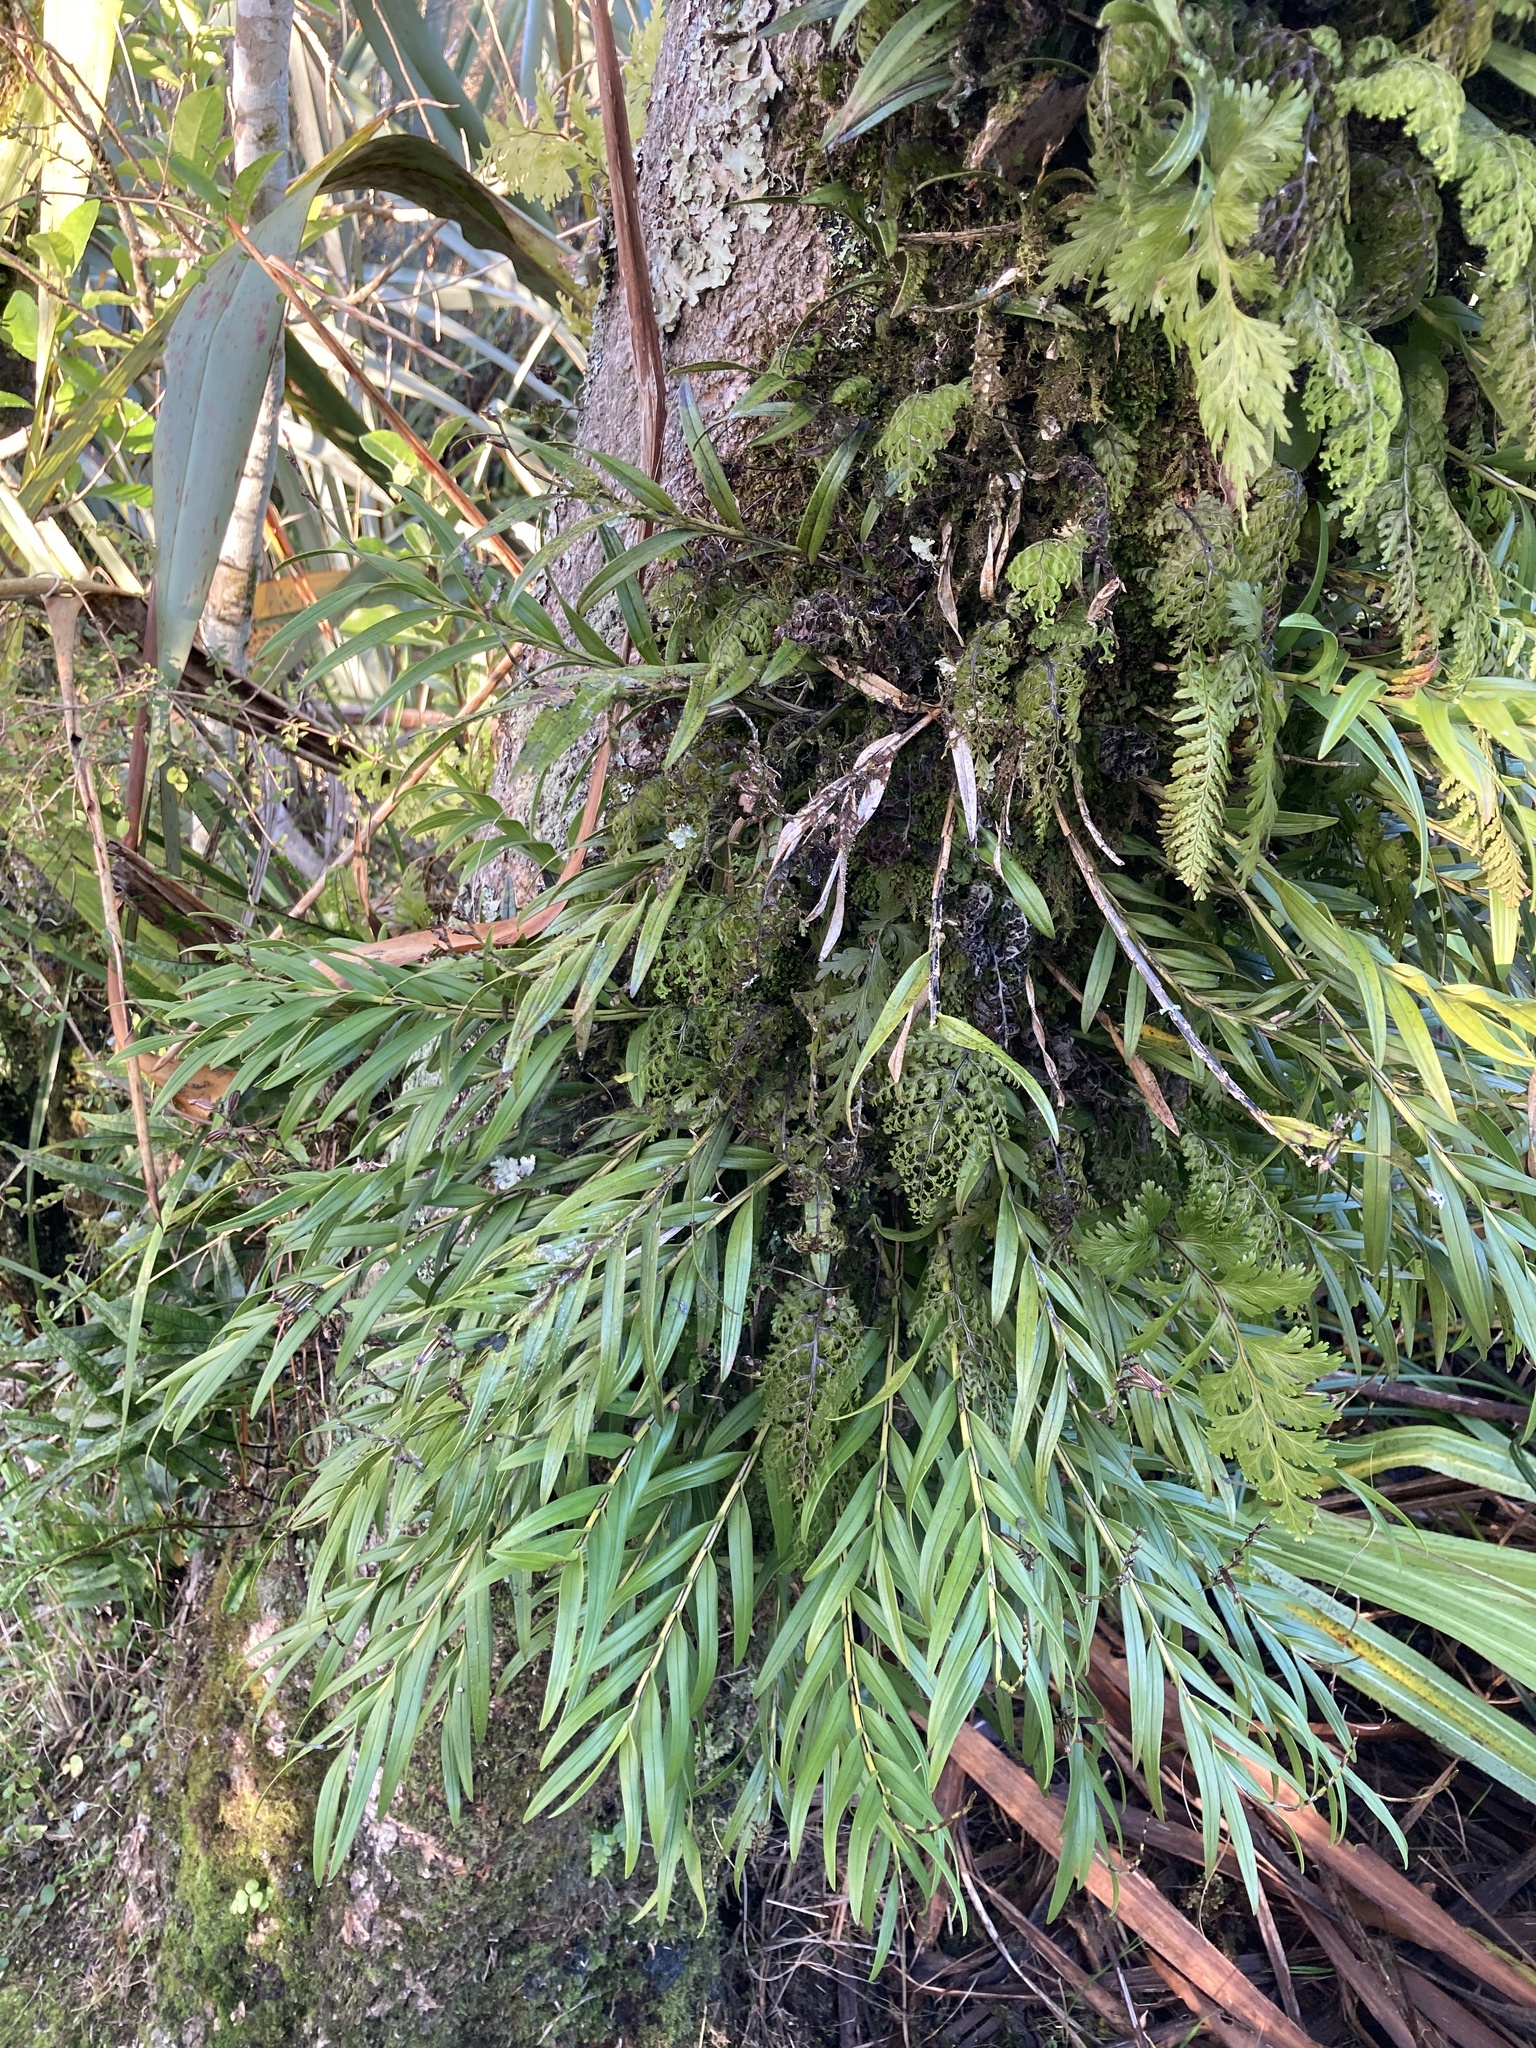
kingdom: Plantae
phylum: Tracheophyta
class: Liliopsida
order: Asparagales
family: Orchidaceae
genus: Earina
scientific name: Earina autumnalis
